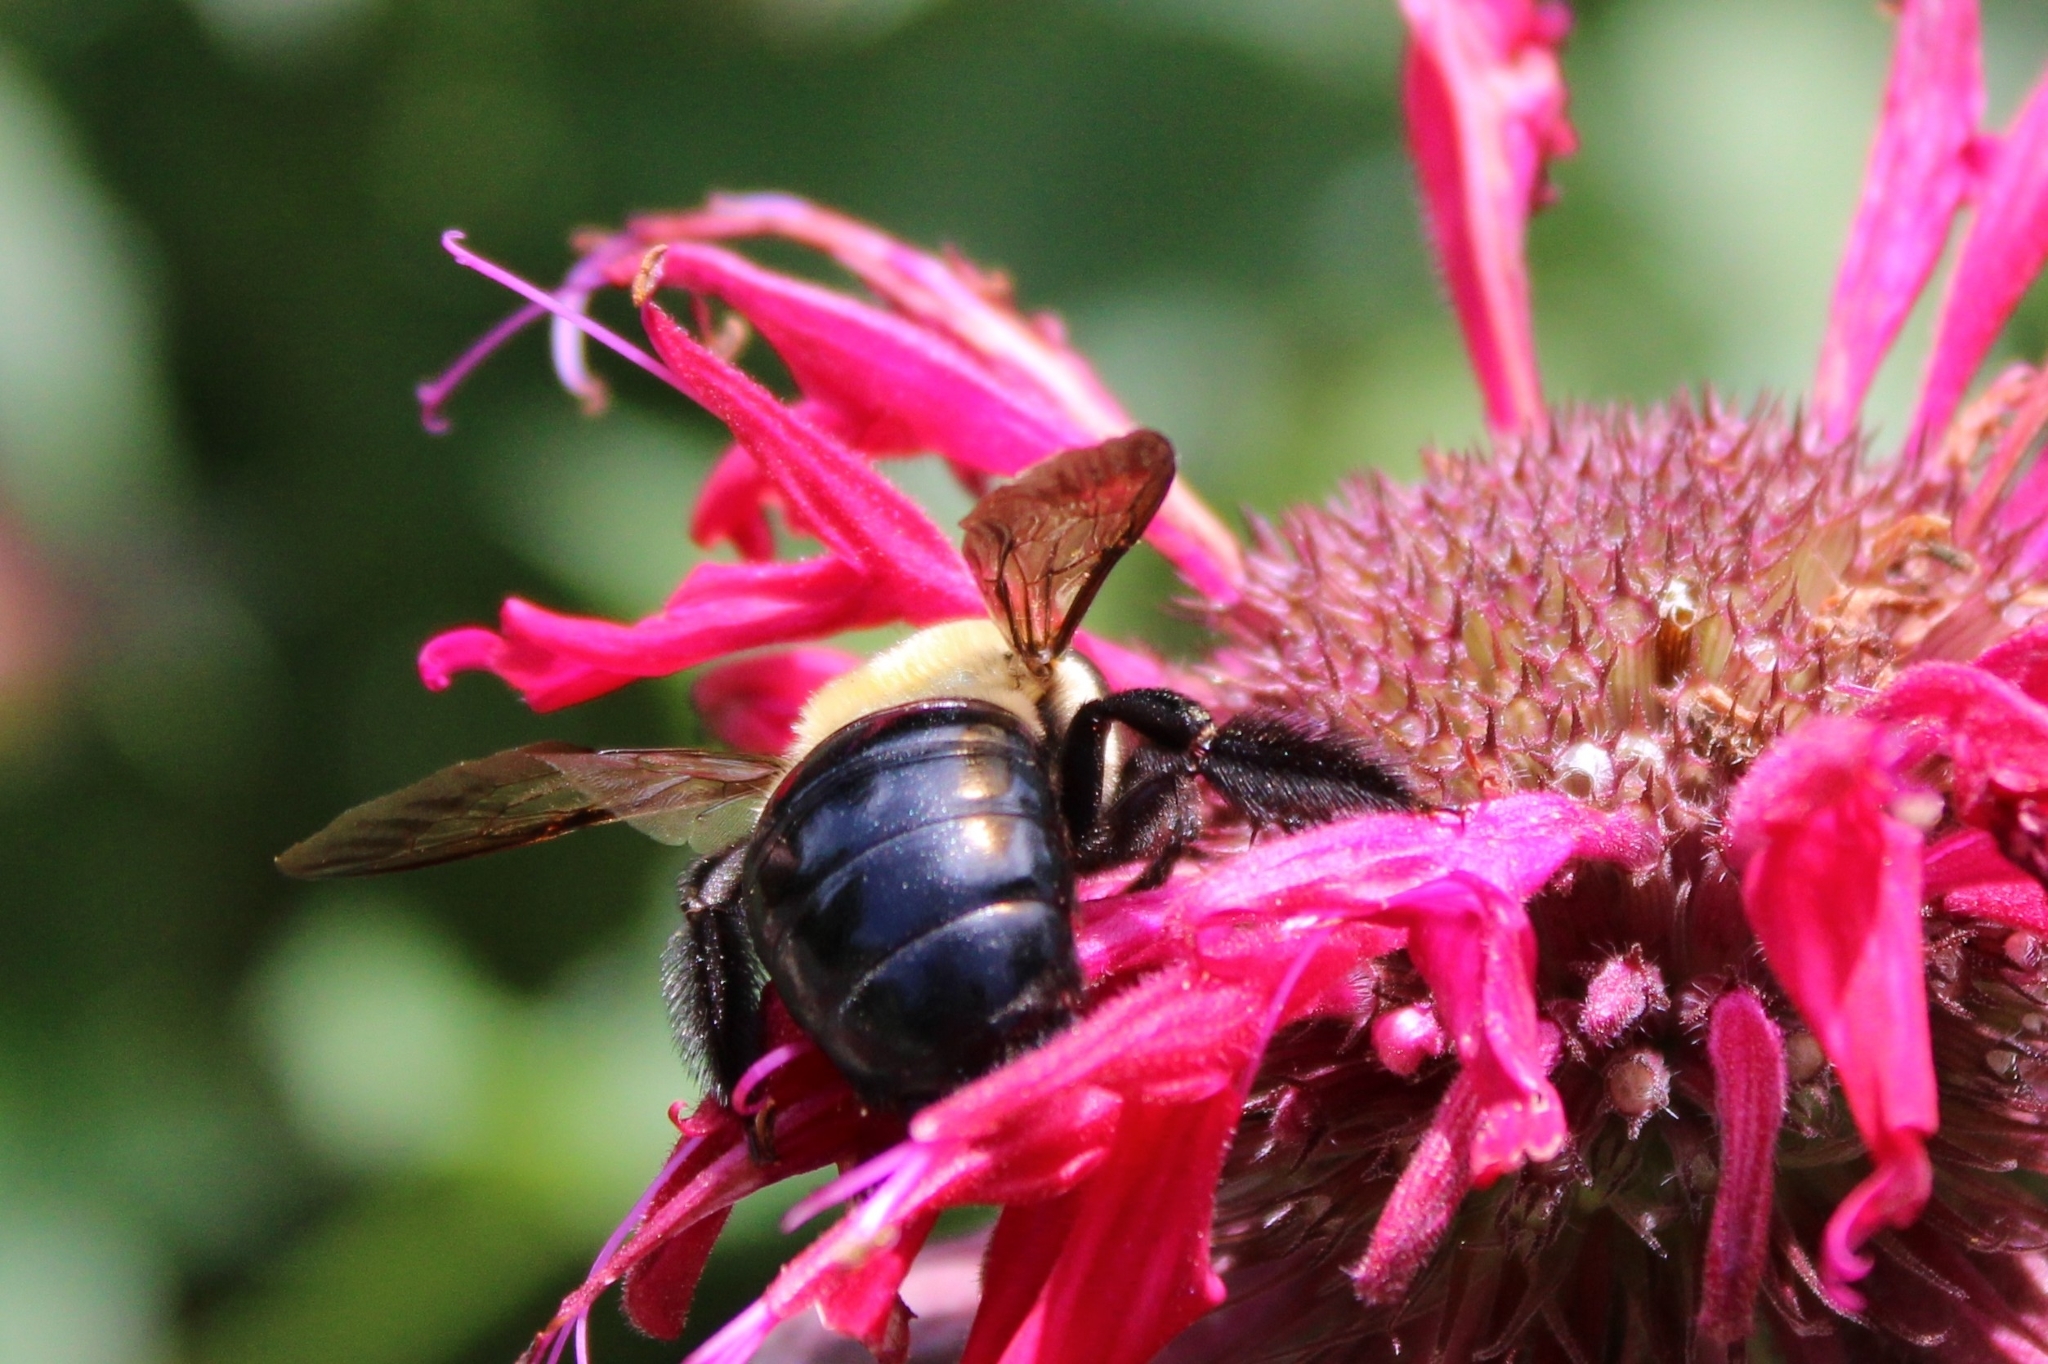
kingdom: Animalia
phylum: Arthropoda
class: Insecta
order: Hymenoptera
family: Apidae
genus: Xylocopa
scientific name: Xylocopa virginica
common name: Carpenter bee
